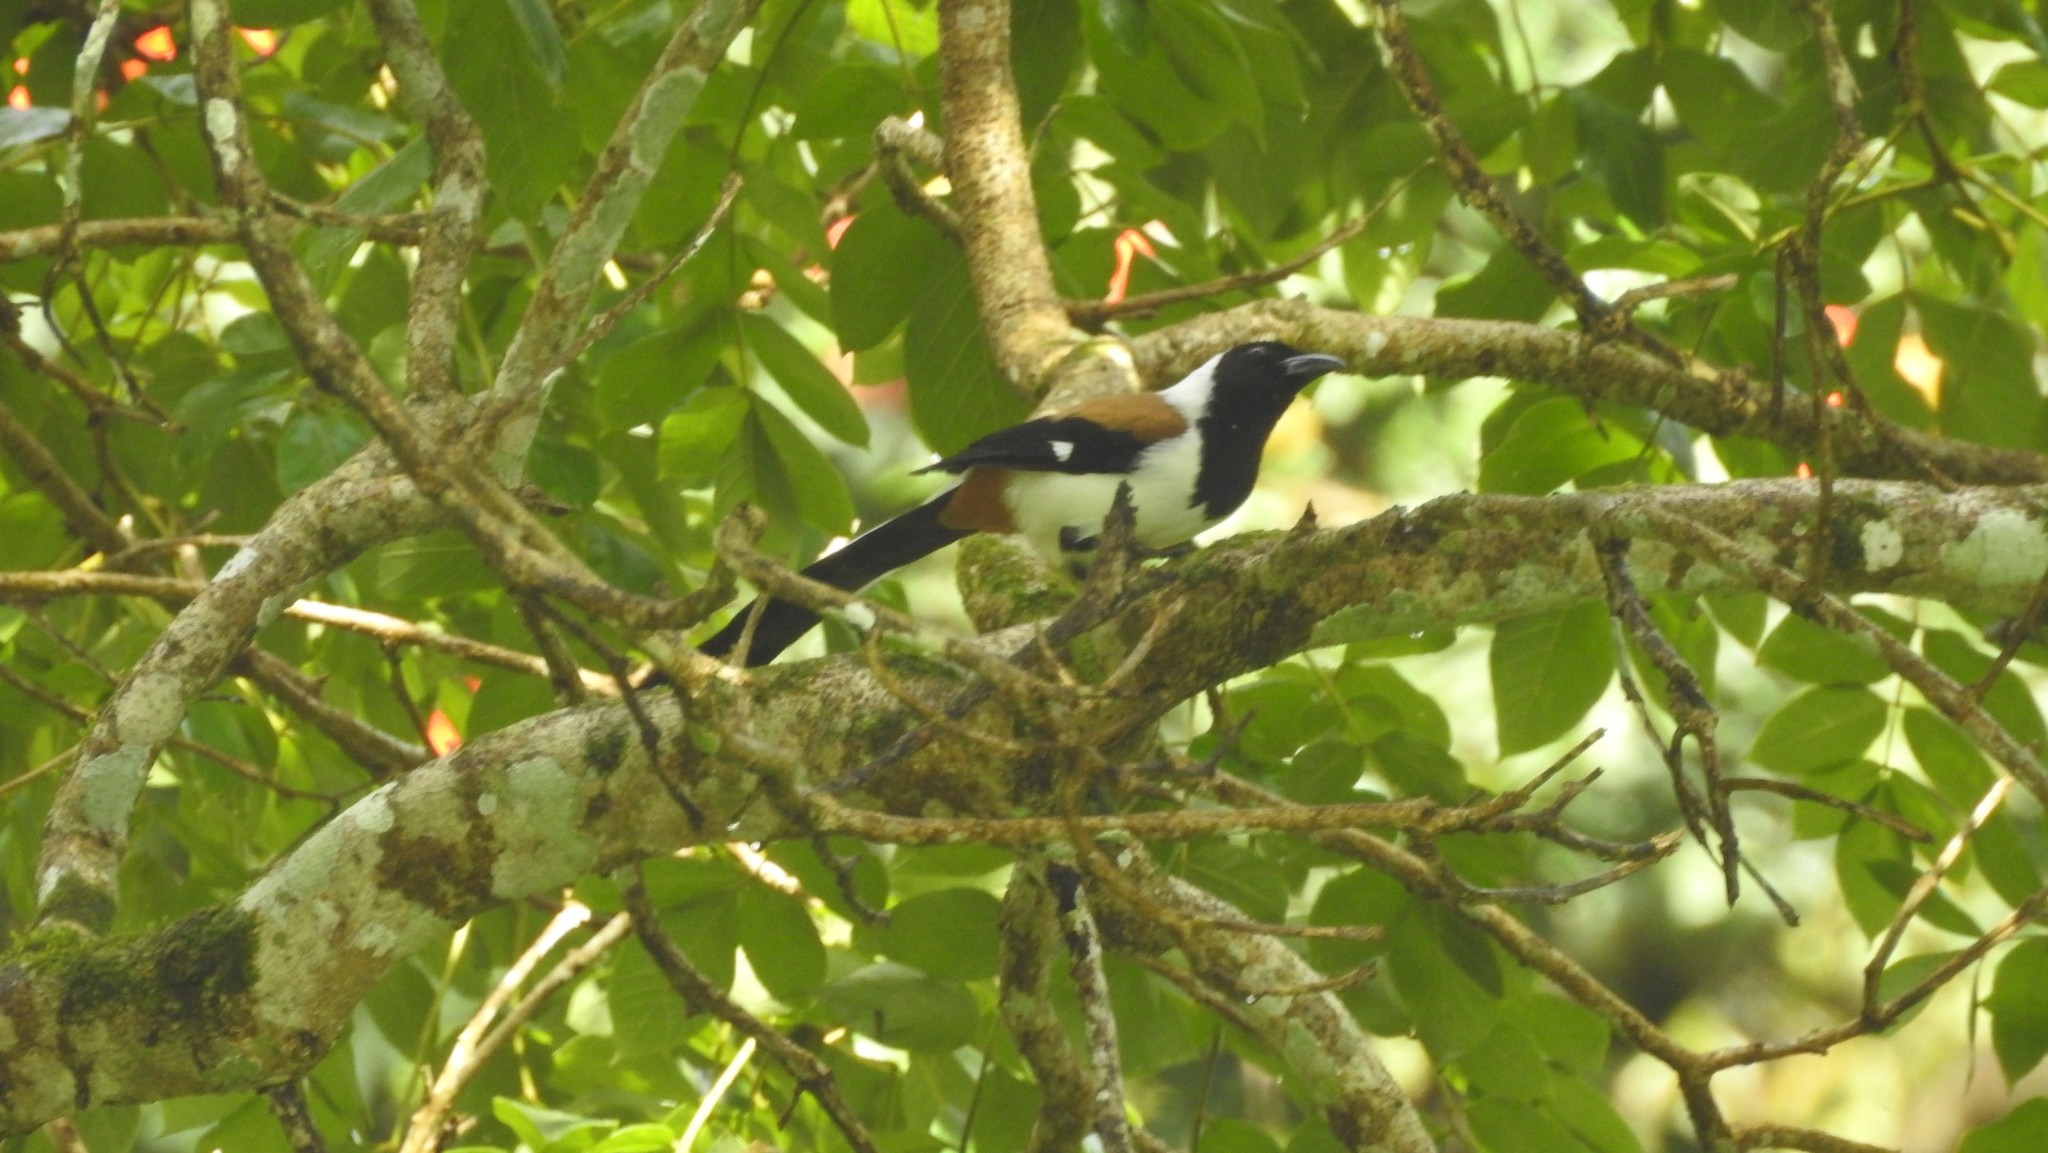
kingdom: Animalia
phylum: Chordata
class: Aves
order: Passeriformes
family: Corvidae
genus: Dendrocitta
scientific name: Dendrocitta leucogastra
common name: White-bellied treepie
